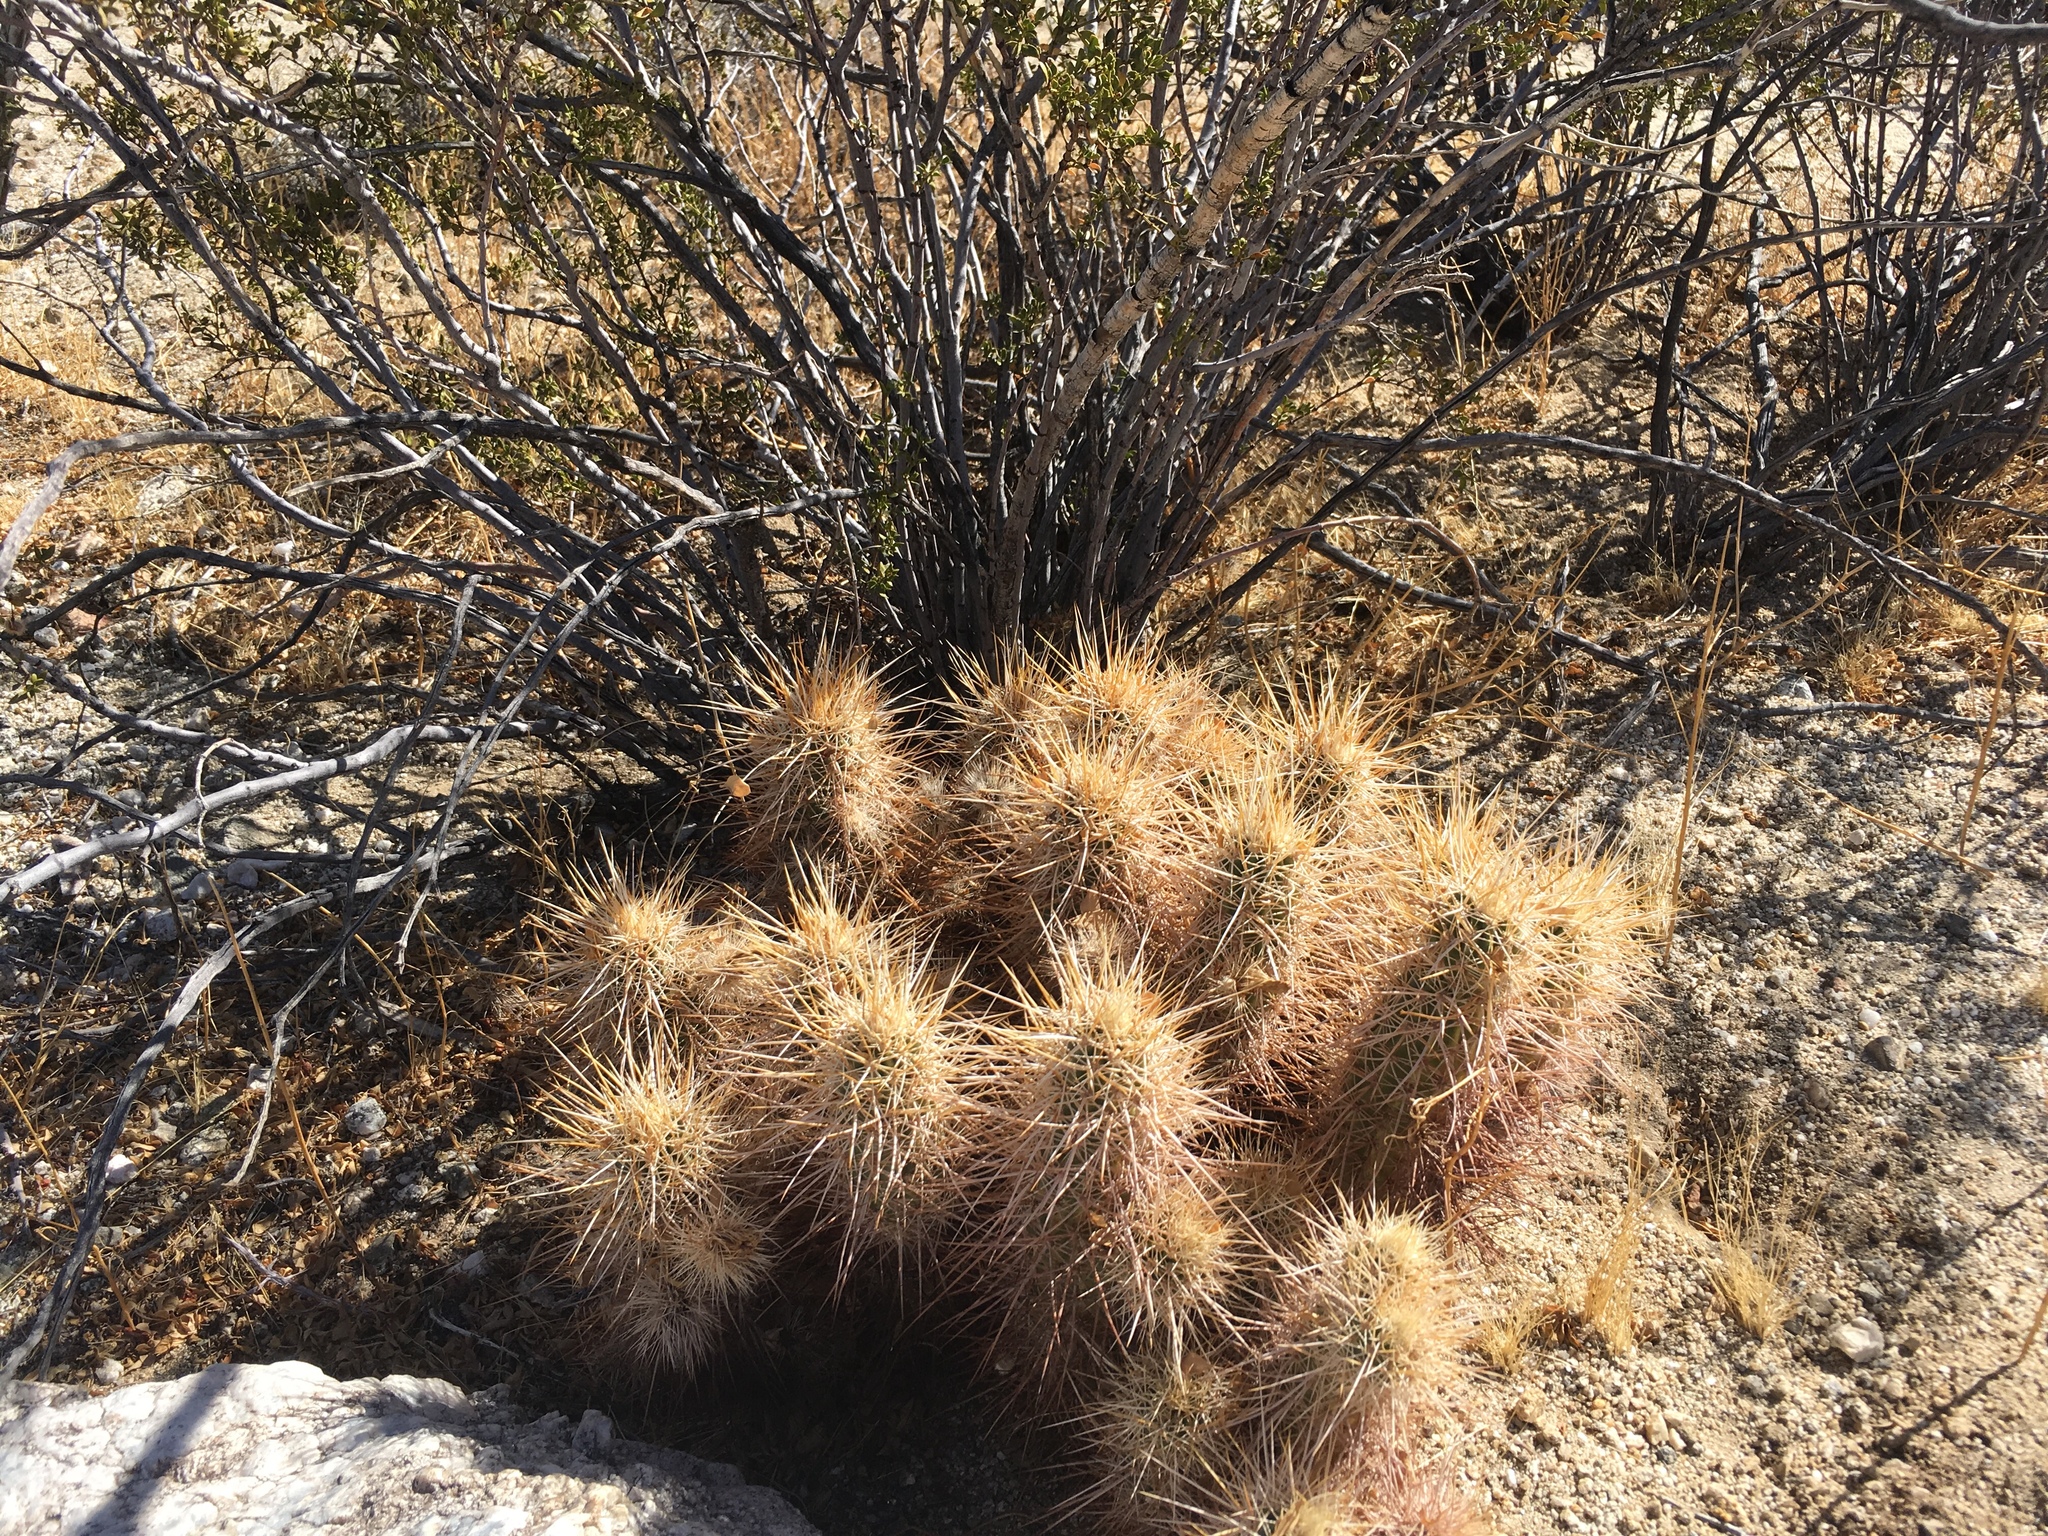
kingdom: Plantae
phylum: Tracheophyta
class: Magnoliopsida
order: Caryophyllales
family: Cactaceae
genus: Echinocereus
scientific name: Echinocereus engelmannii
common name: Engelmann's hedgehog cactus
